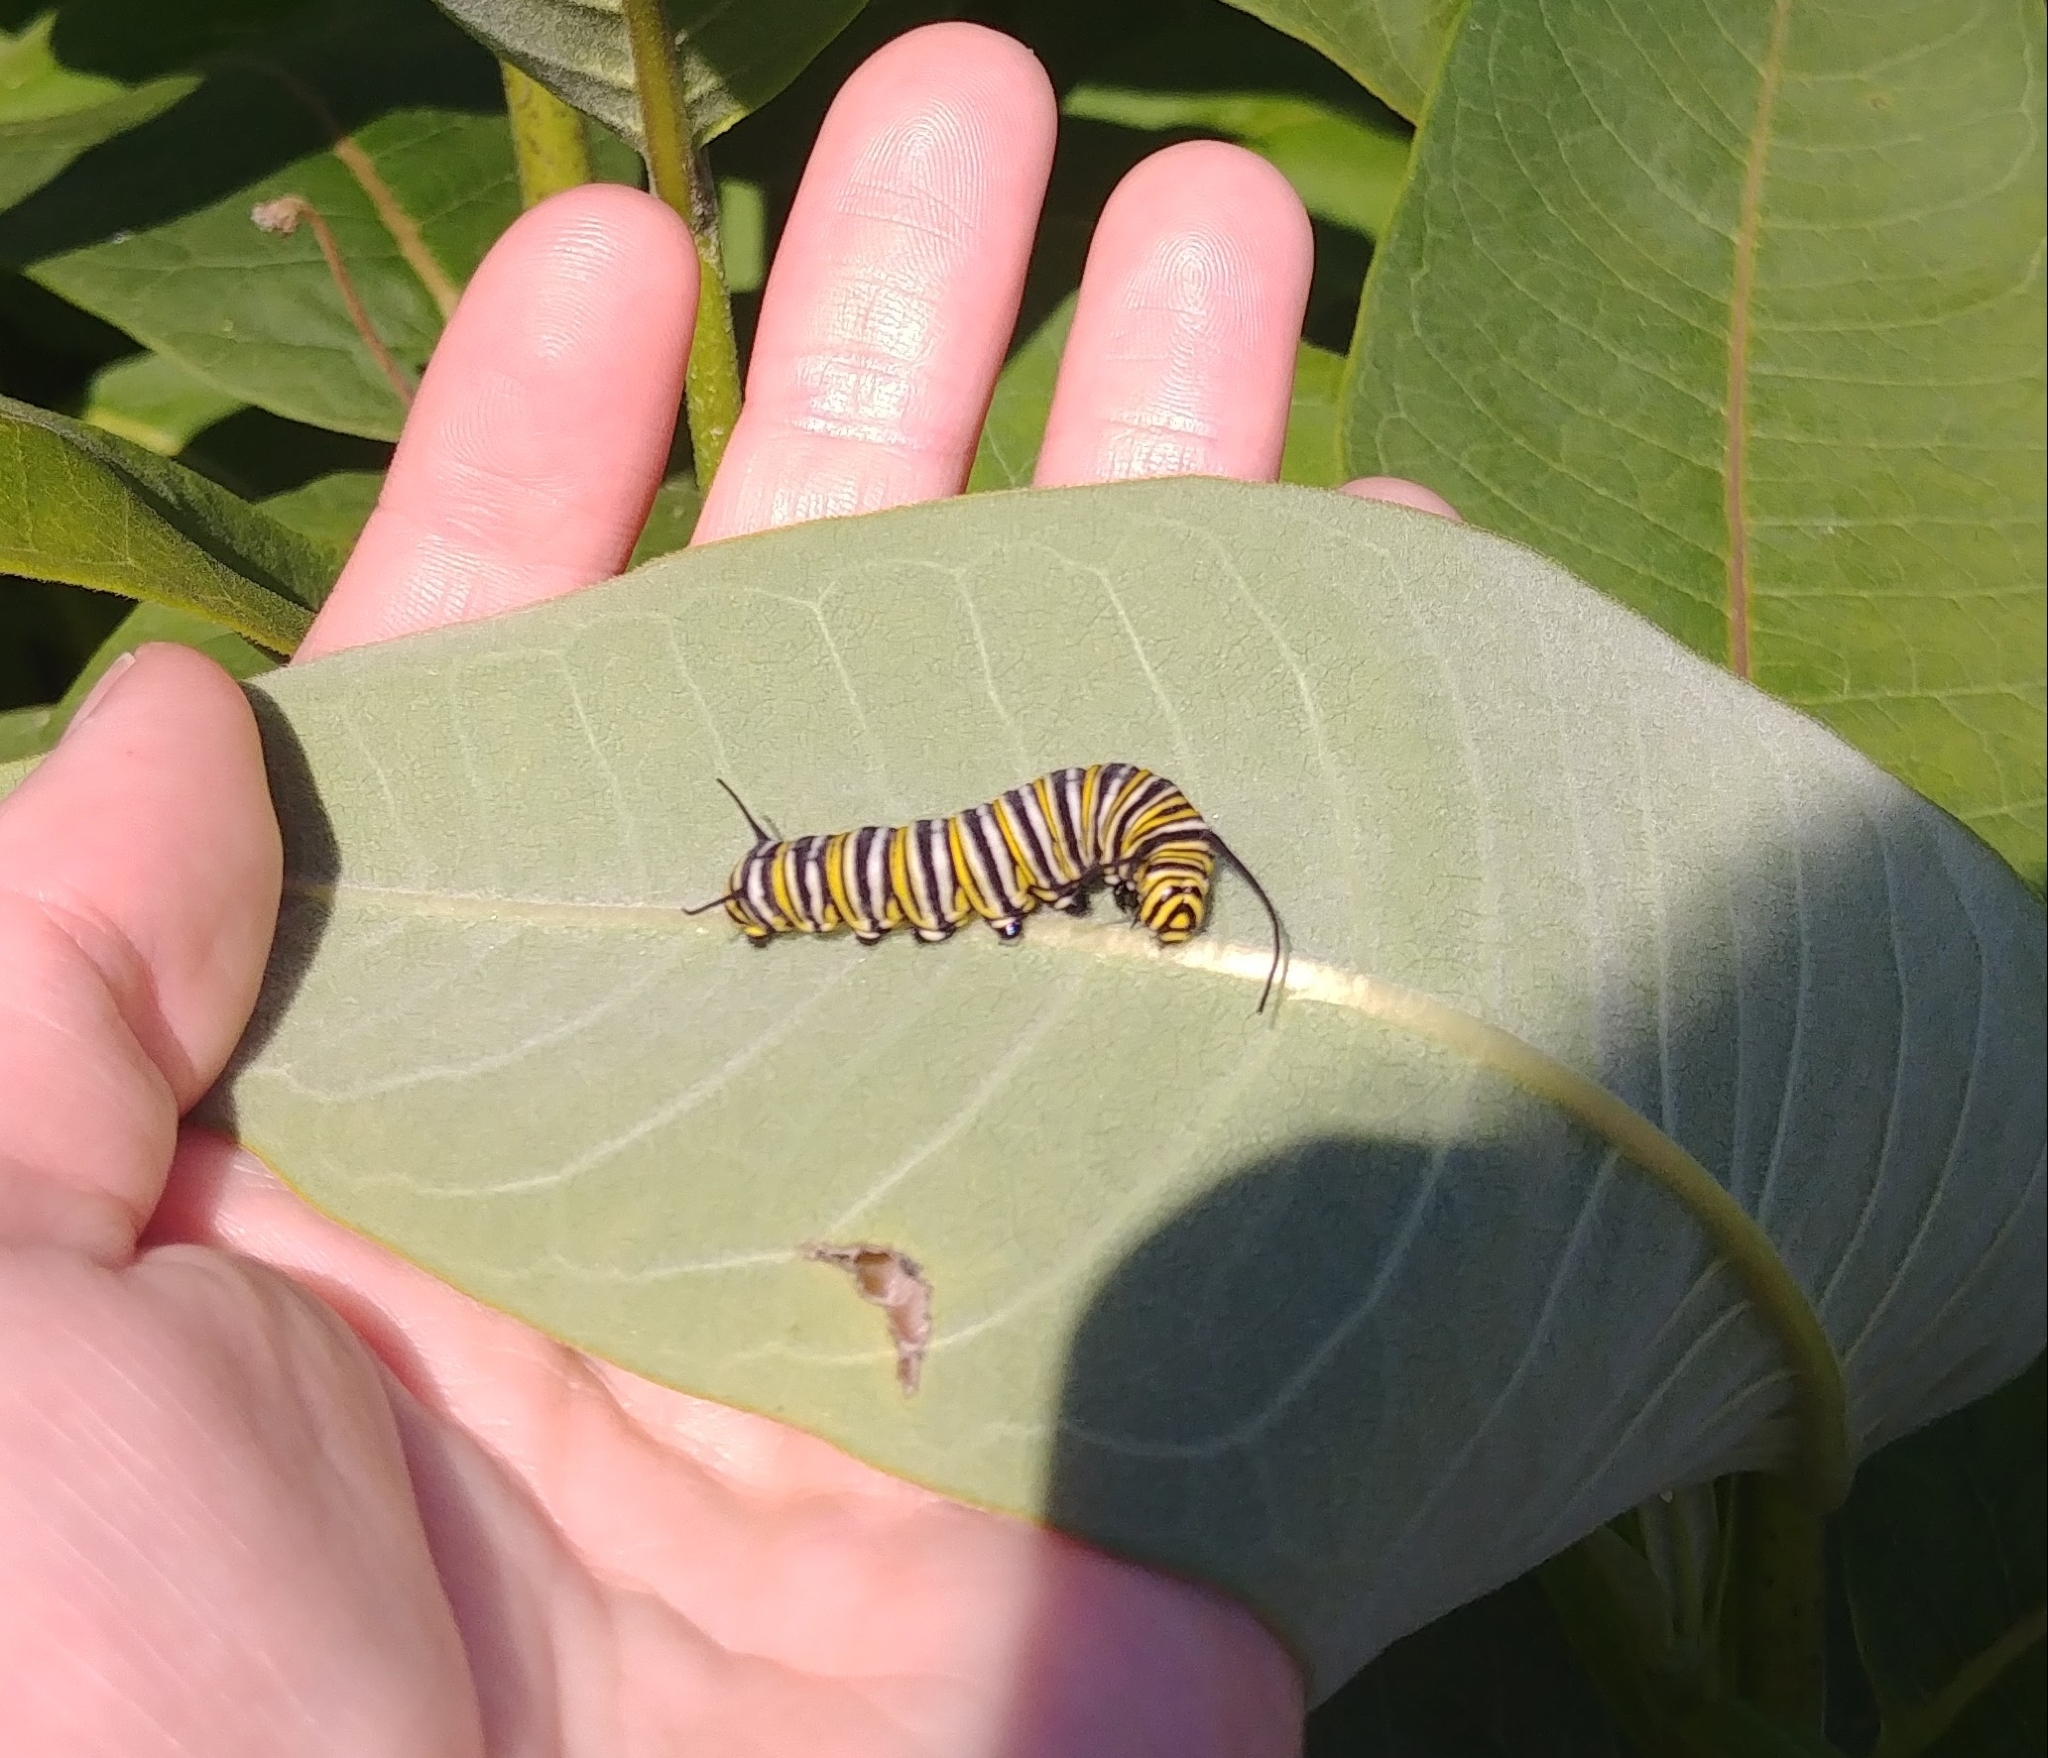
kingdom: Animalia
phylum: Arthropoda
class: Insecta
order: Lepidoptera
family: Nymphalidae
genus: Danaus
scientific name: Danaus plexippus
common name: Monarch
